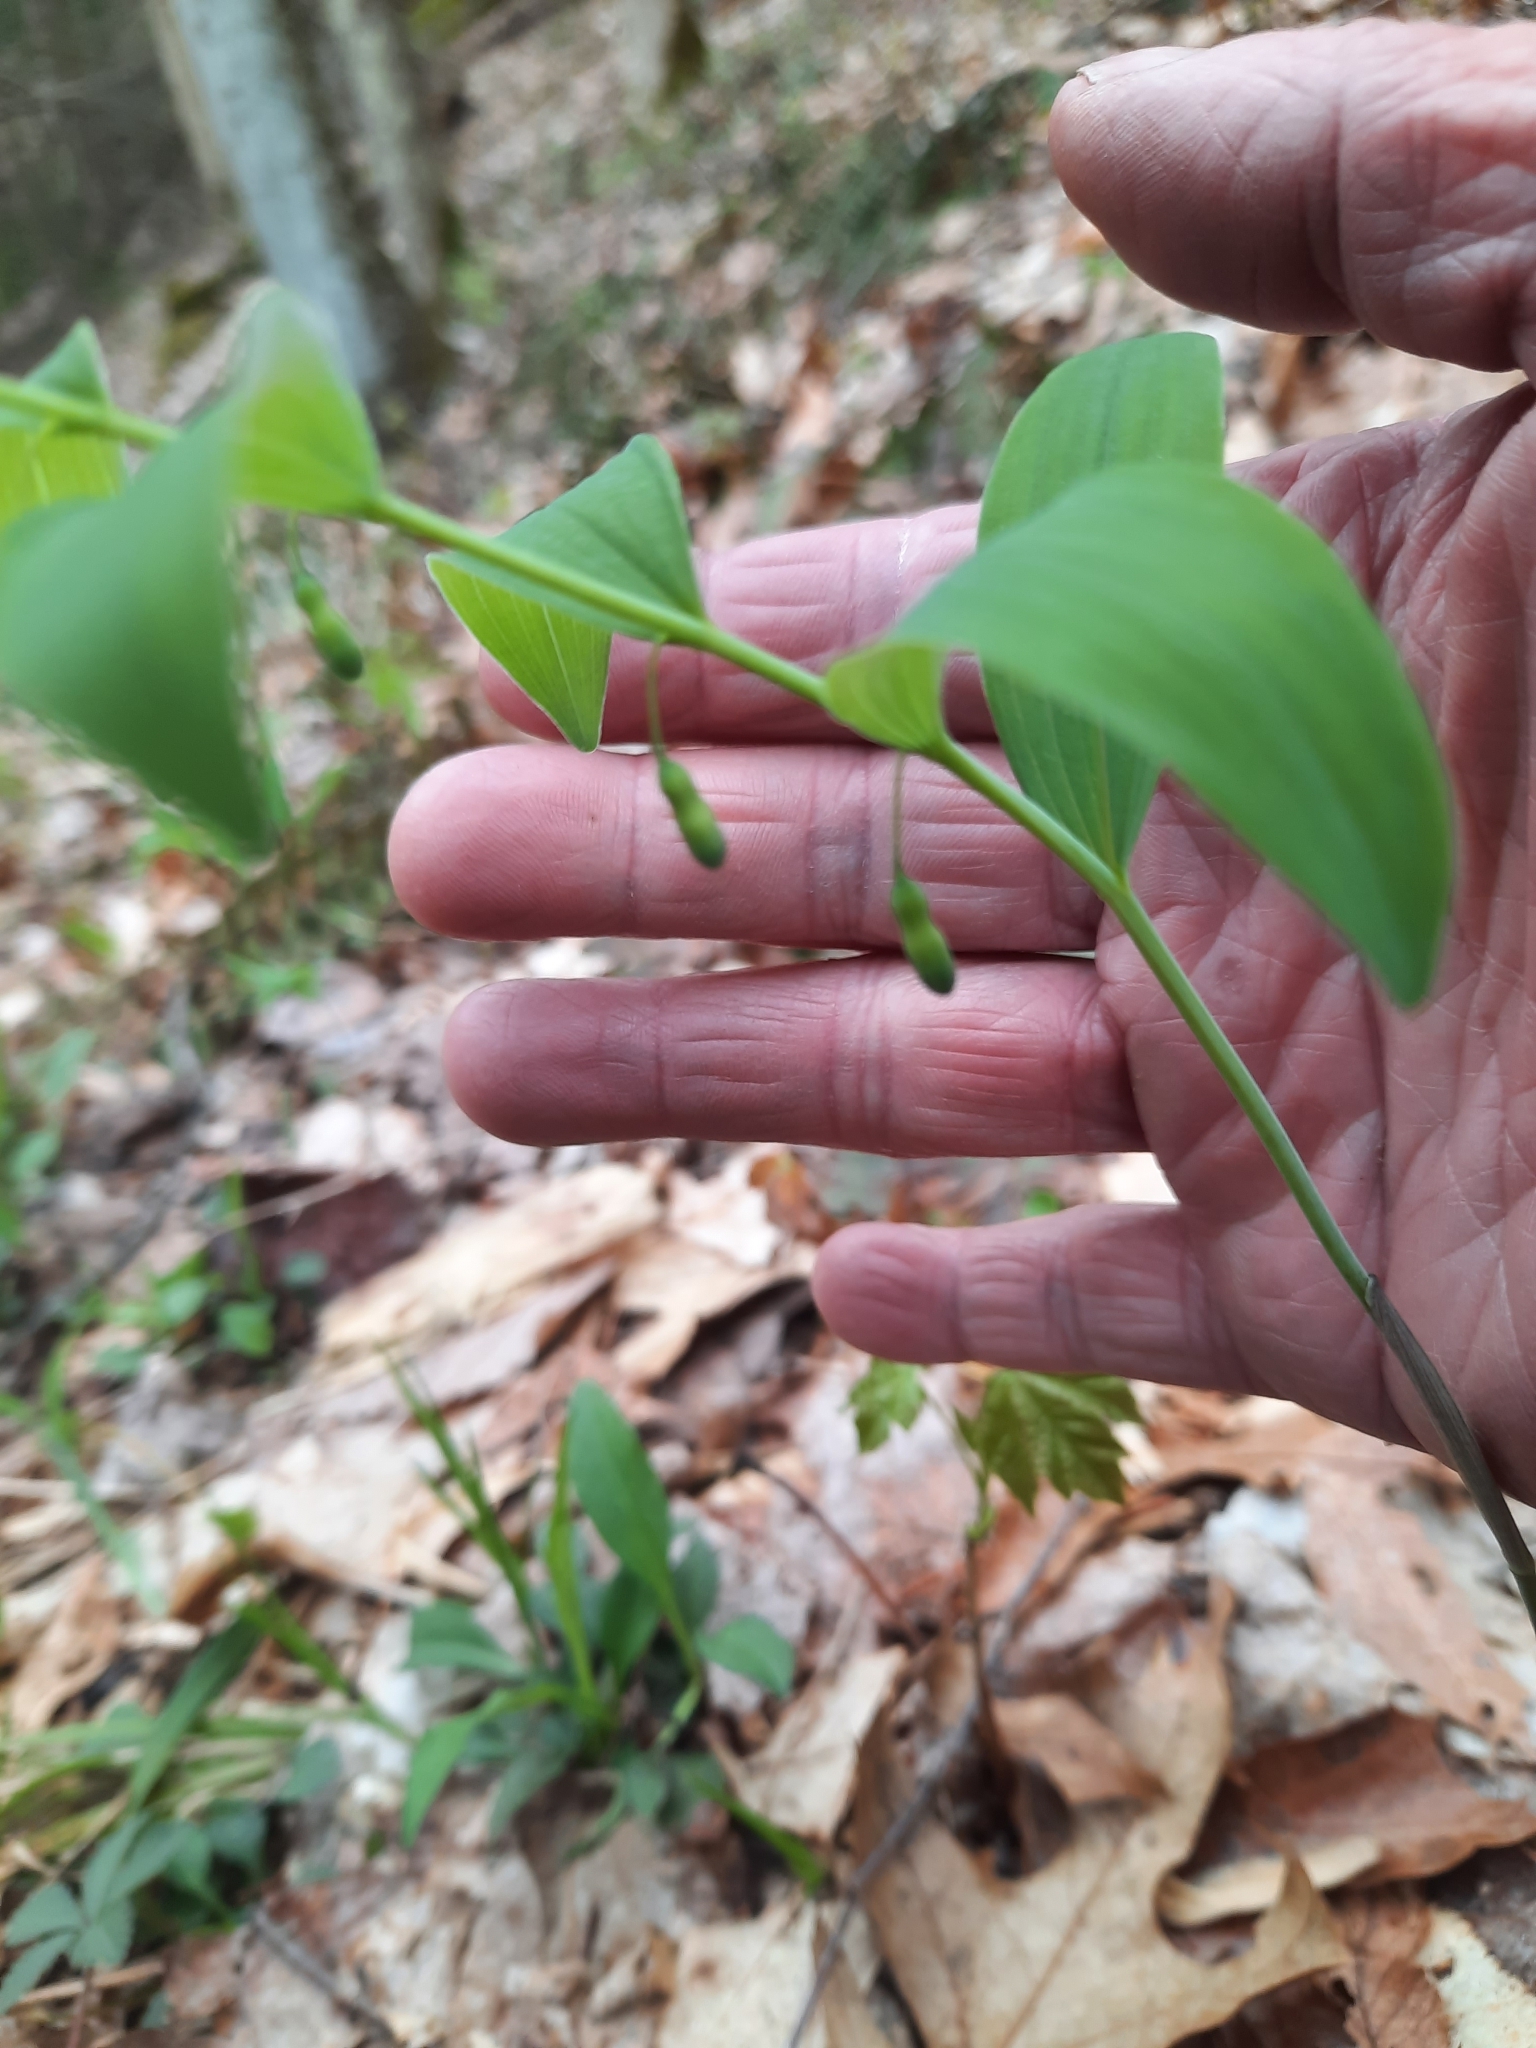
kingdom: Plantae
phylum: Tracheophyta
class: Liliopsida
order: Asparagales
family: Asparagaceae
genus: Polygonatum
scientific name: Polygonatum pubescens
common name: Downy solomon's seal
